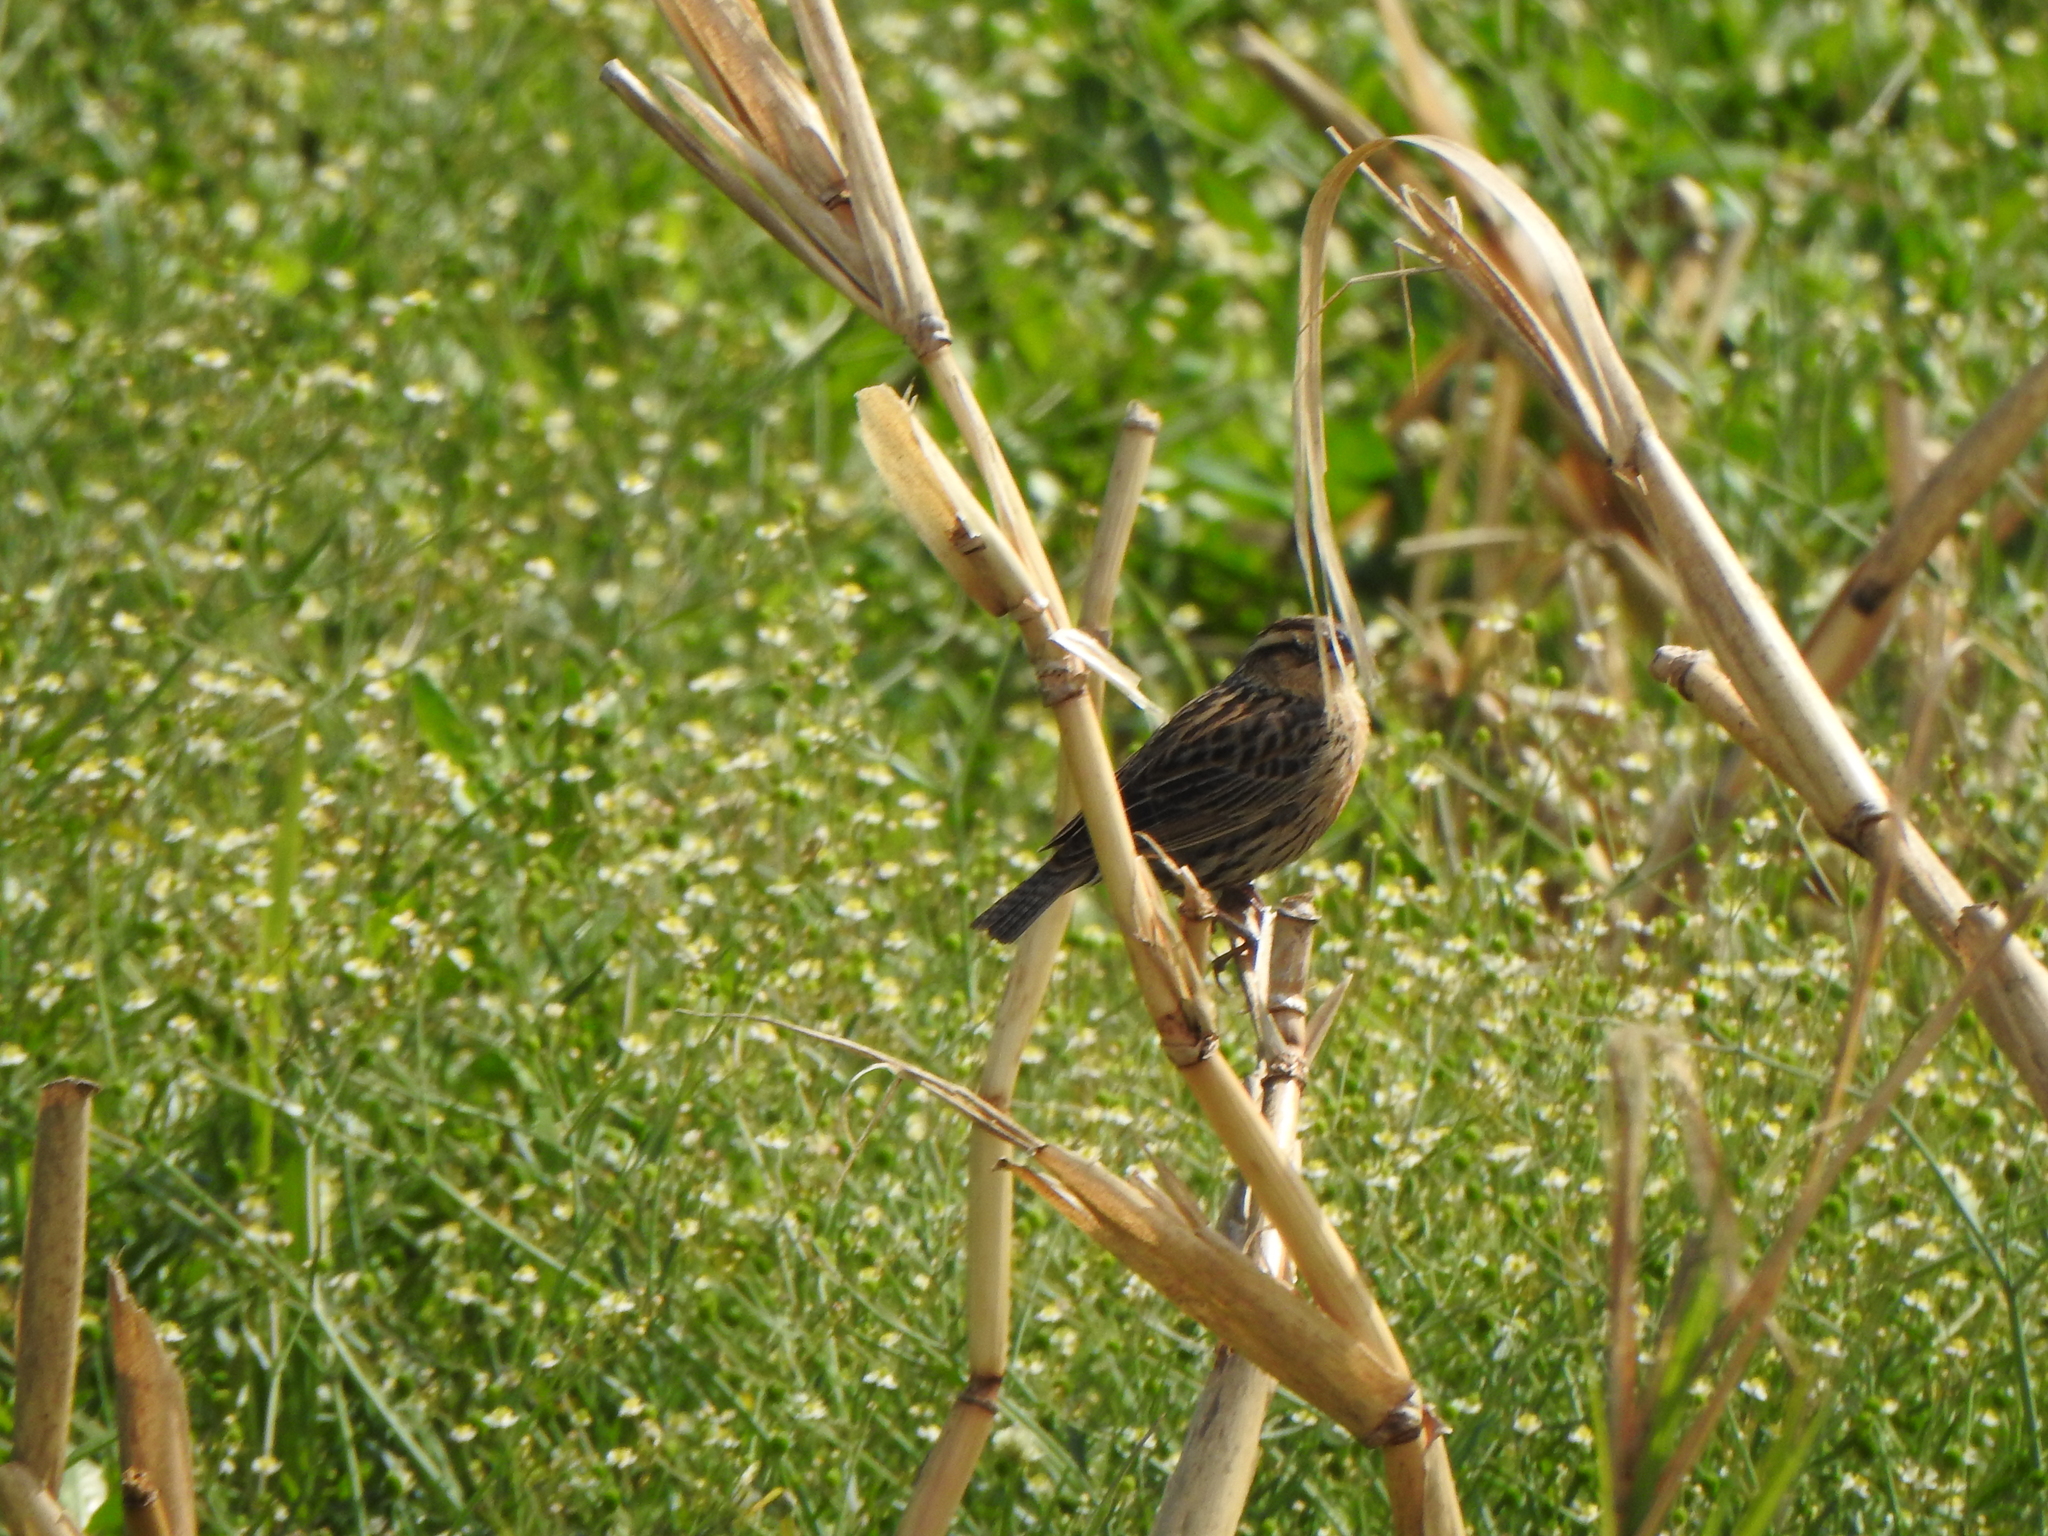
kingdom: Animalia
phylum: Chordata
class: Aves
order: Passeriformes
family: Icteridae
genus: Sturnella
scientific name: Sturnella superciliaris
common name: White-browed blackbird
